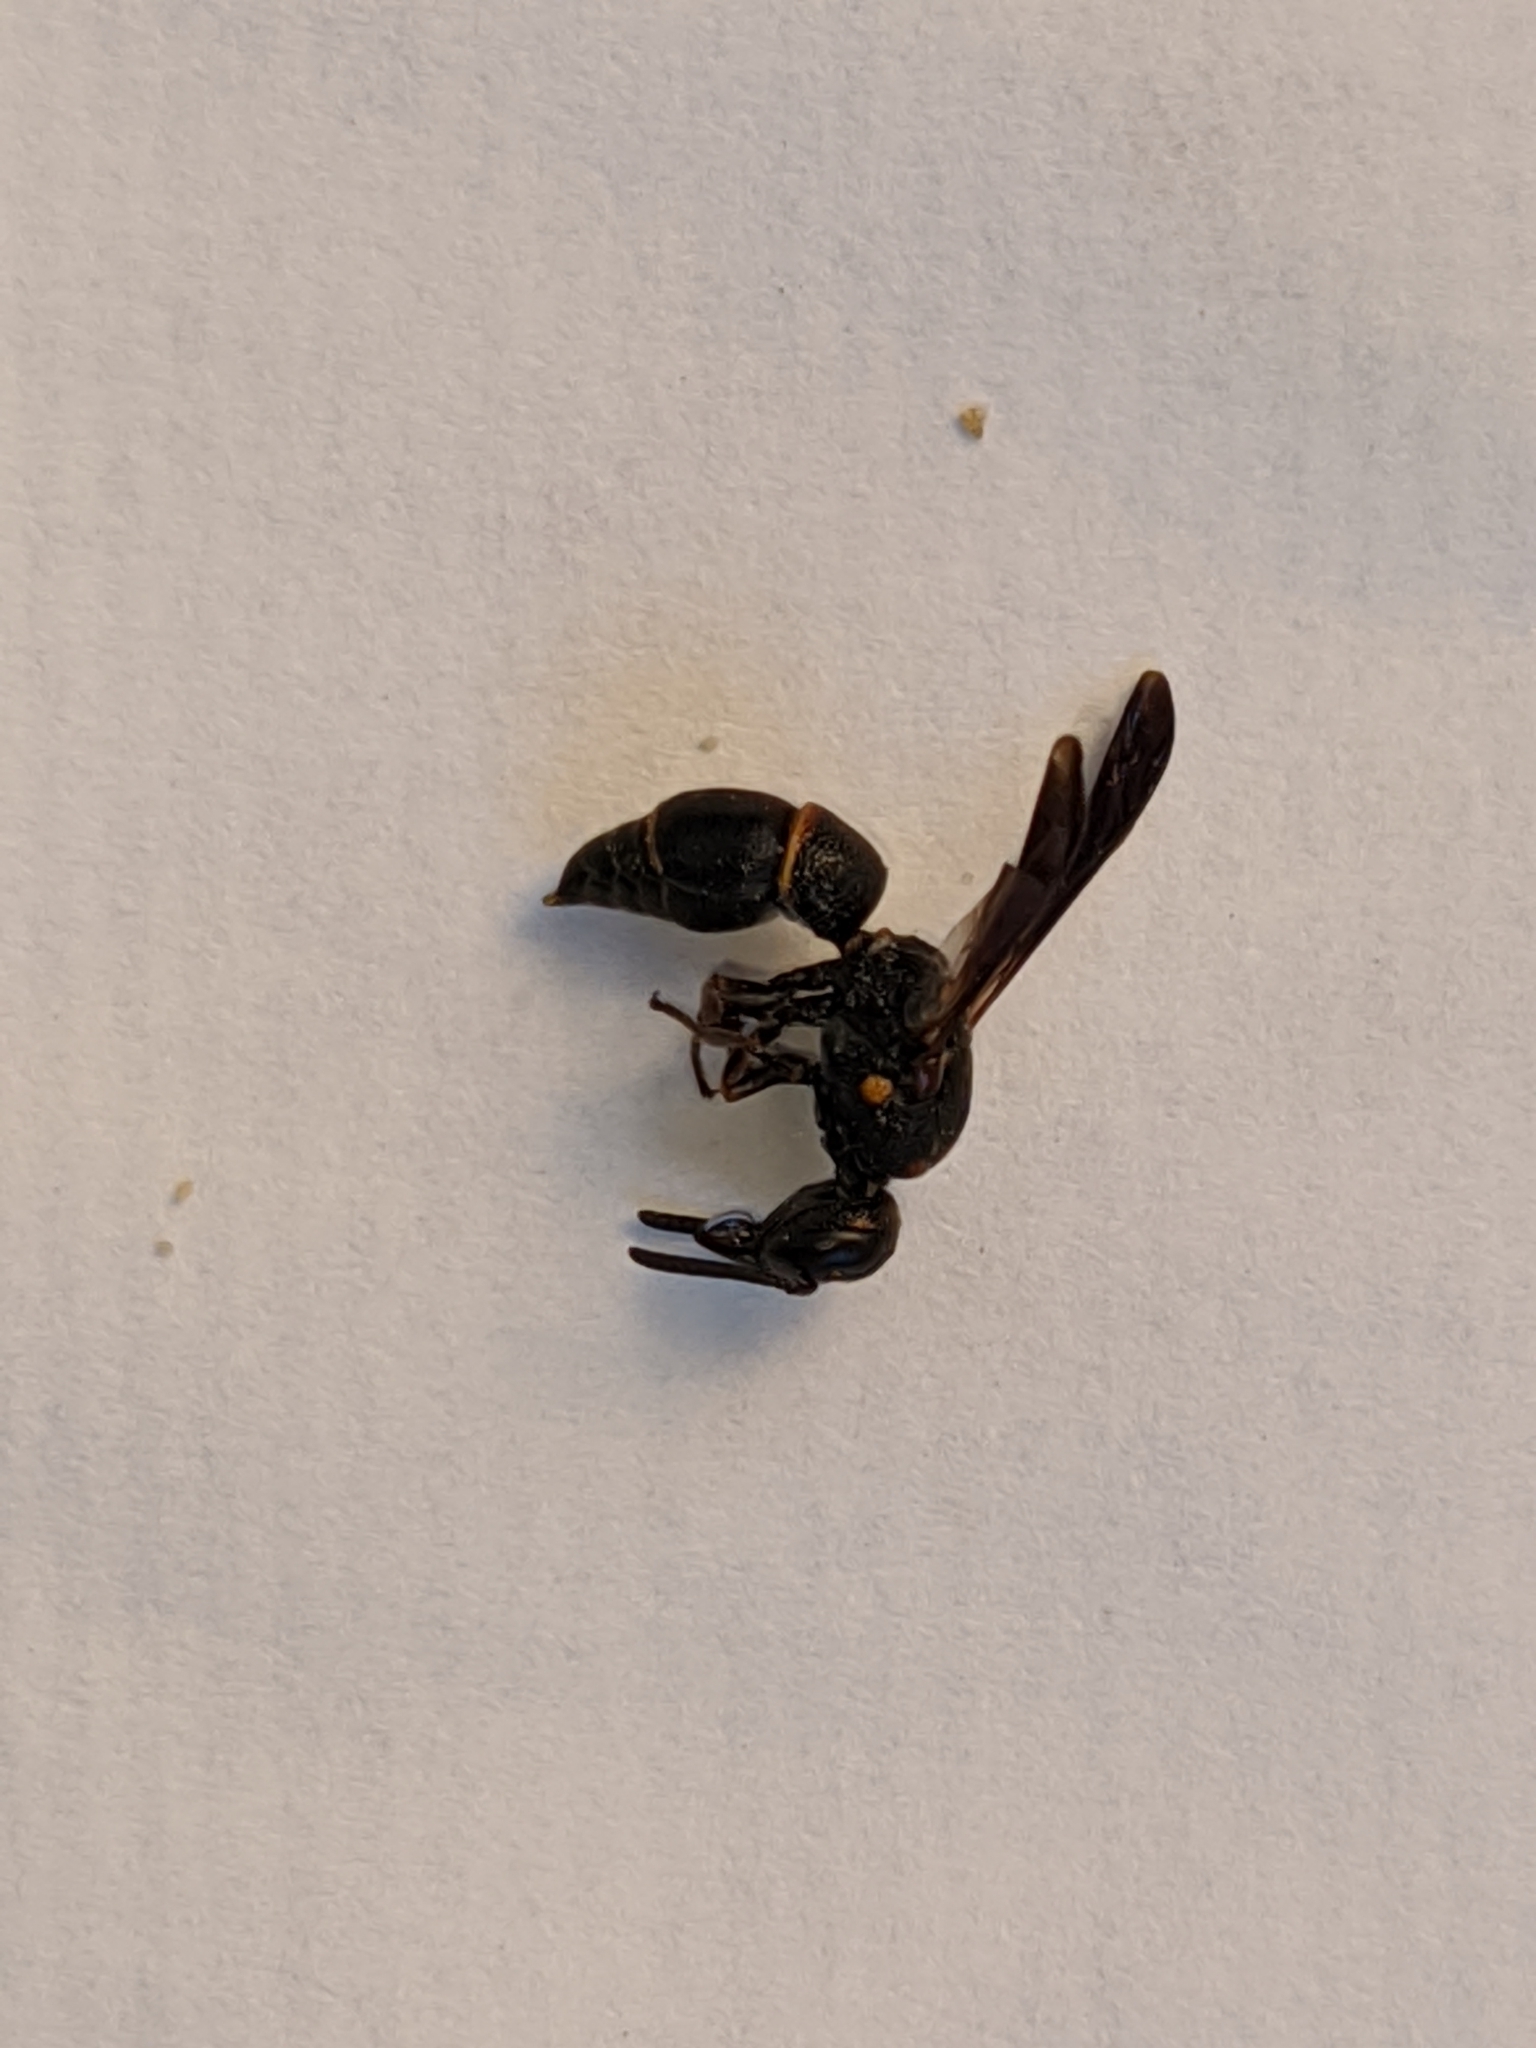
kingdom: Animalia
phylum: Arthropoda
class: Insecta
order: Hymenoptera
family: Eumenidae
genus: Parancistrocerus
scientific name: Parancistrocerus histrio
